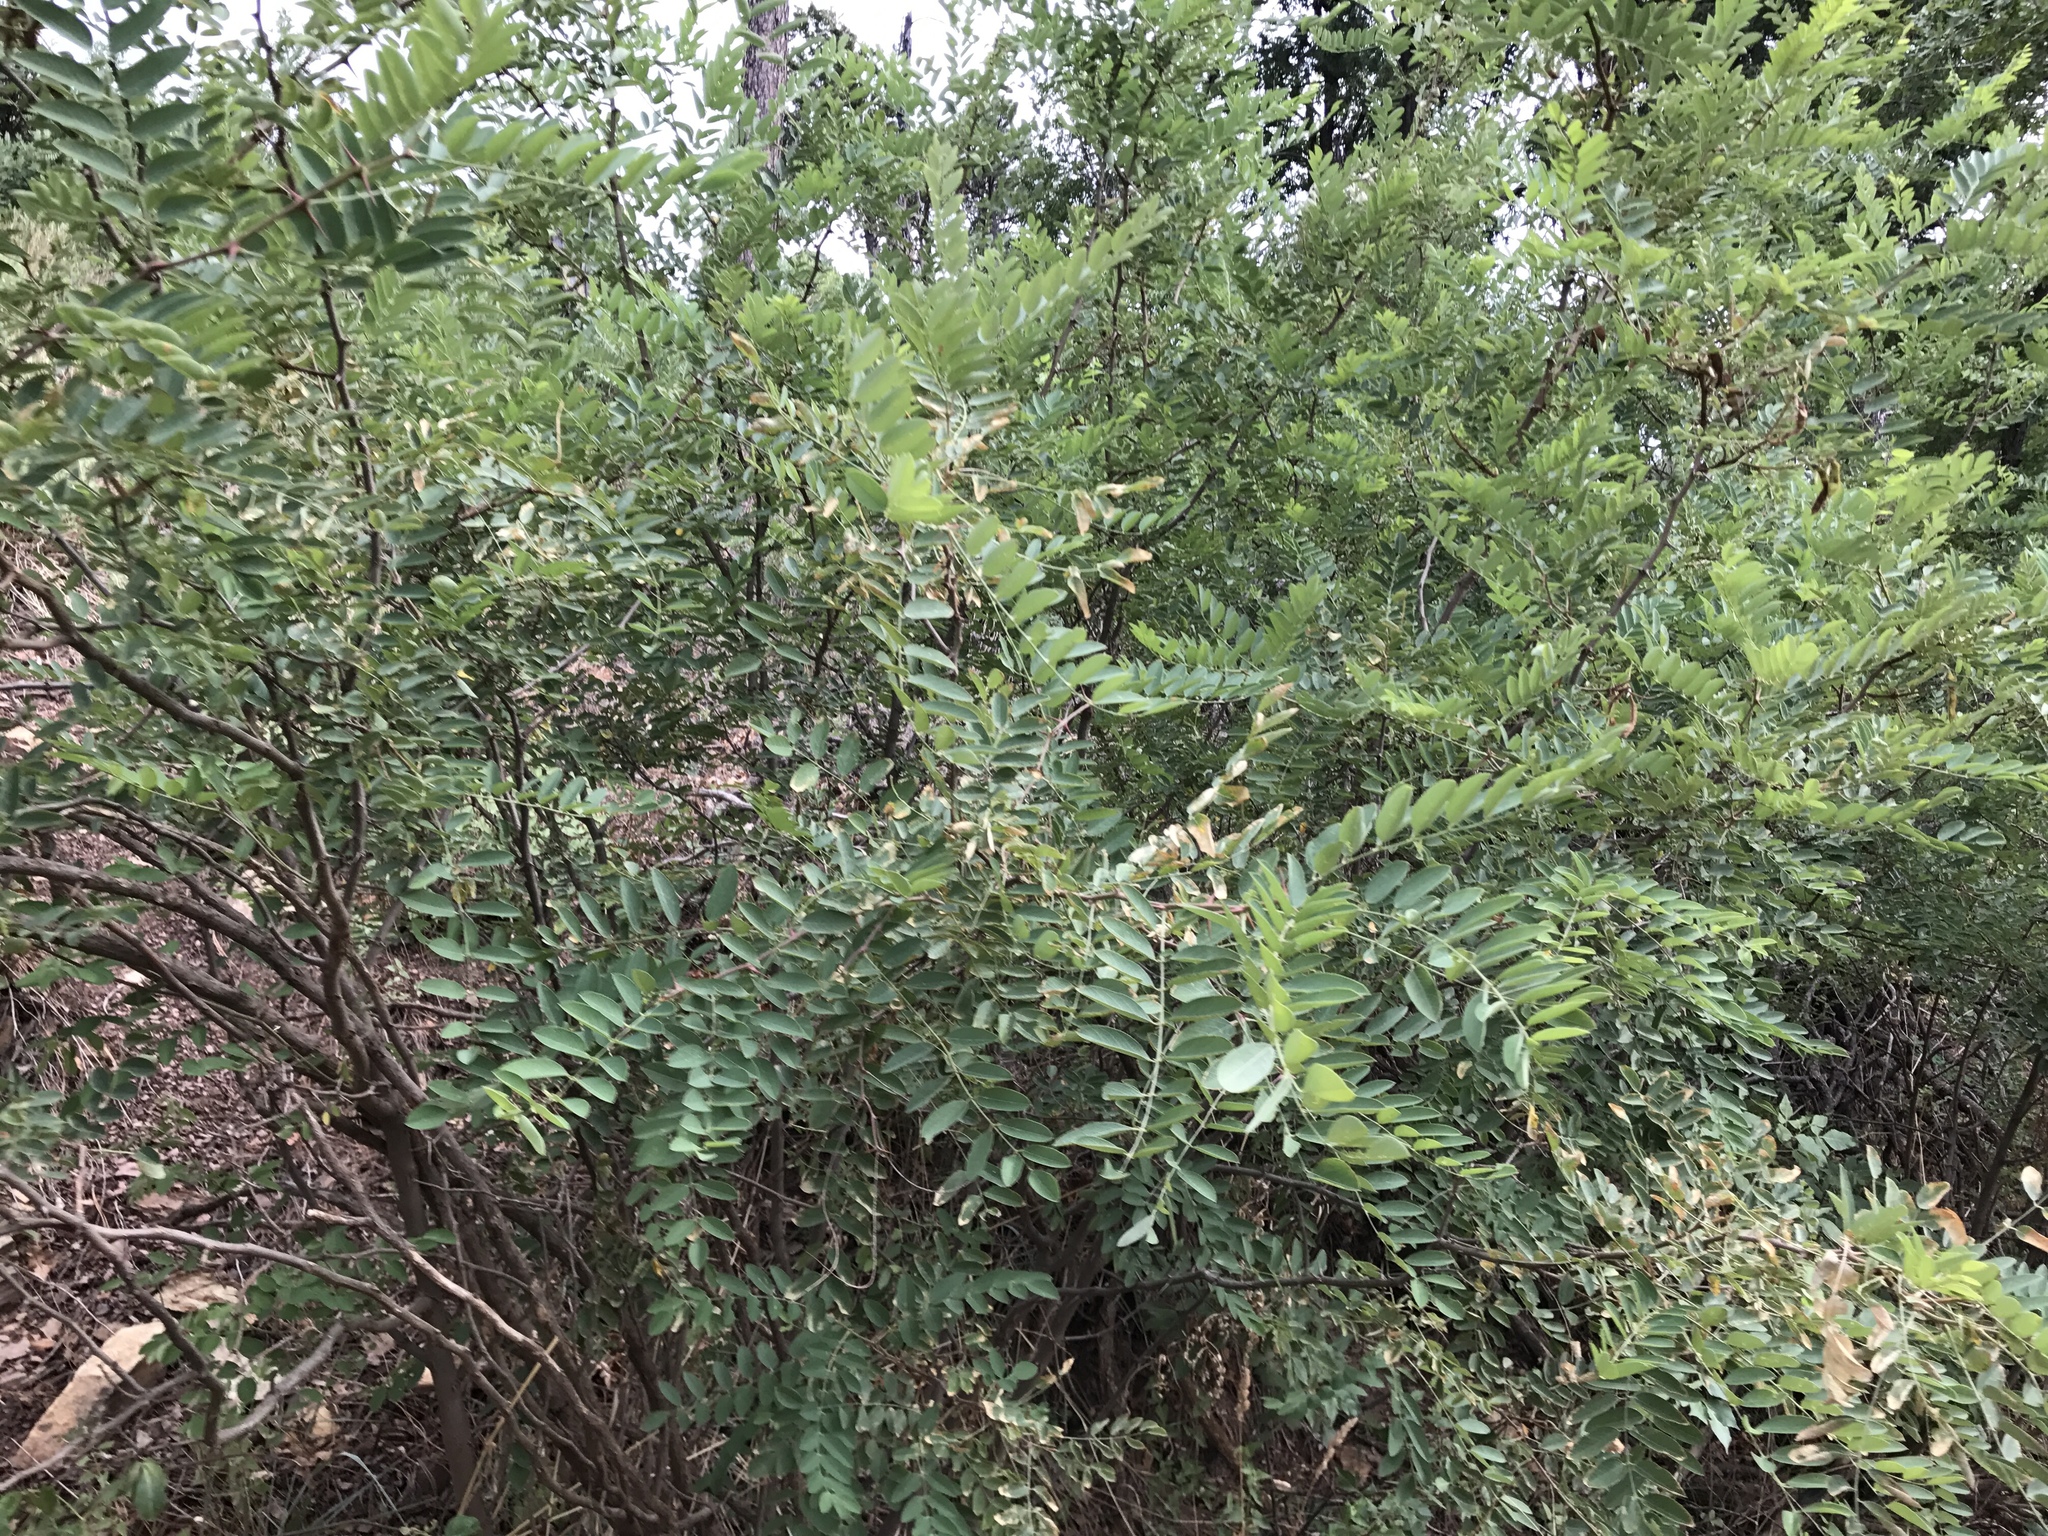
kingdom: Plantae
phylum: Tracheophyta
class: Magnoliopsida
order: Fabales
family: Fabaceae
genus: Robinia
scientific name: Robinia neomexicana
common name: New mexico locust
